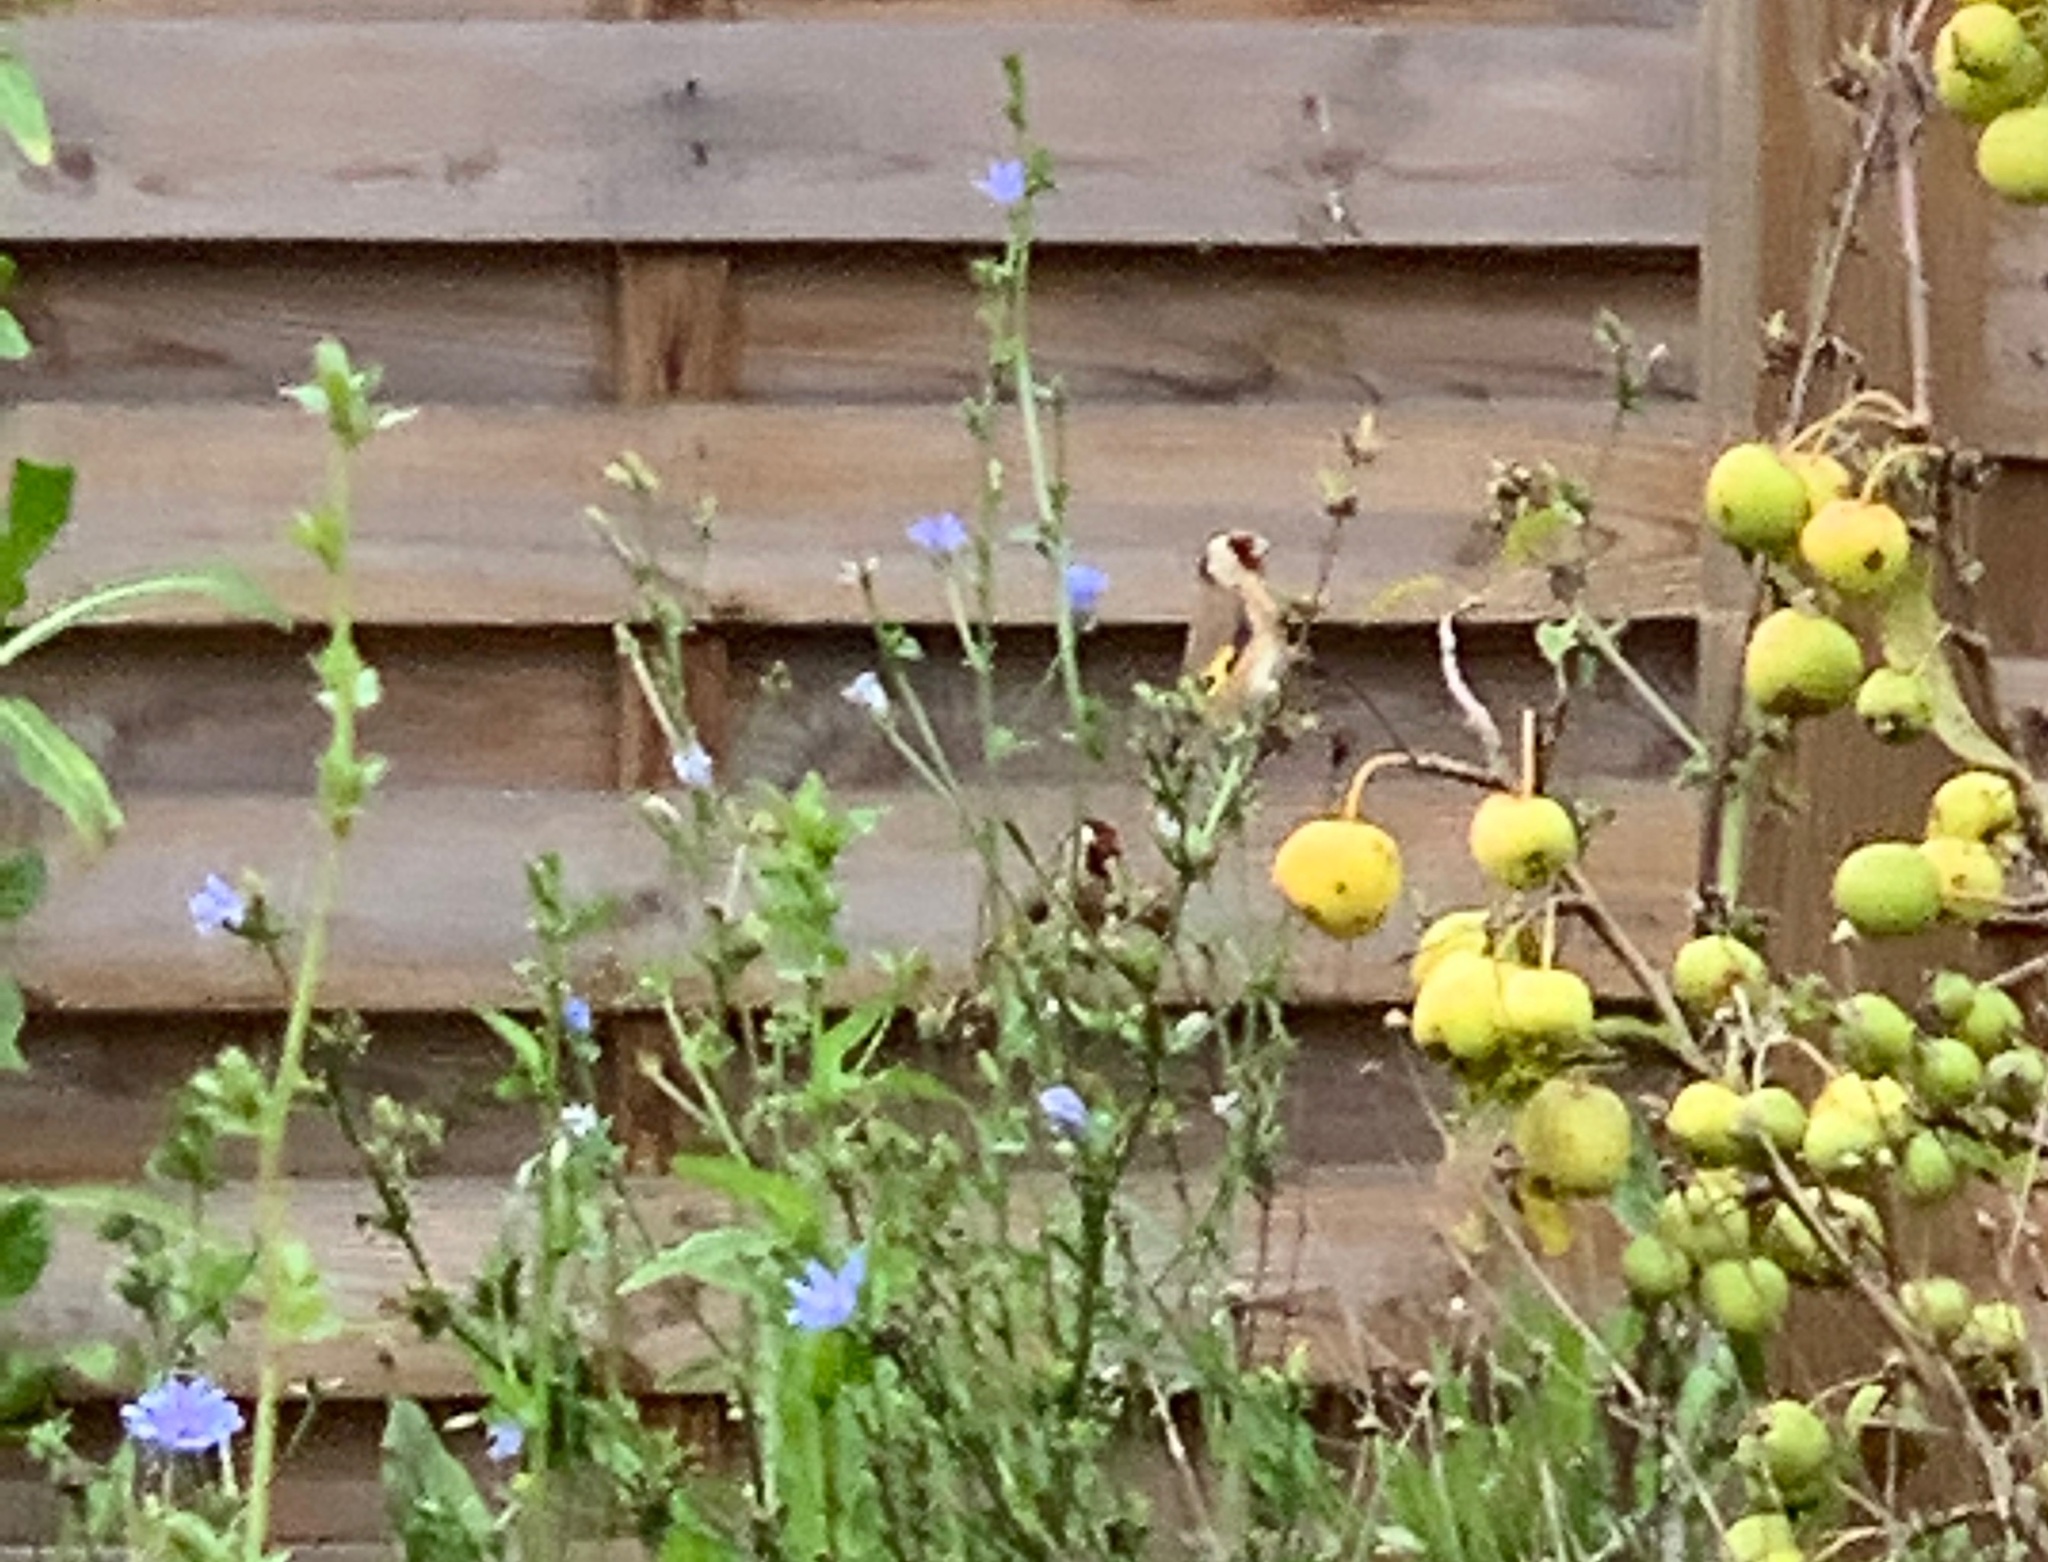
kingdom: Animalia
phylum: Chordata
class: Aves
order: Passeriformes
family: Fringillidae
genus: Carduelis
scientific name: Carduelis carduelis
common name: European goldfinch
